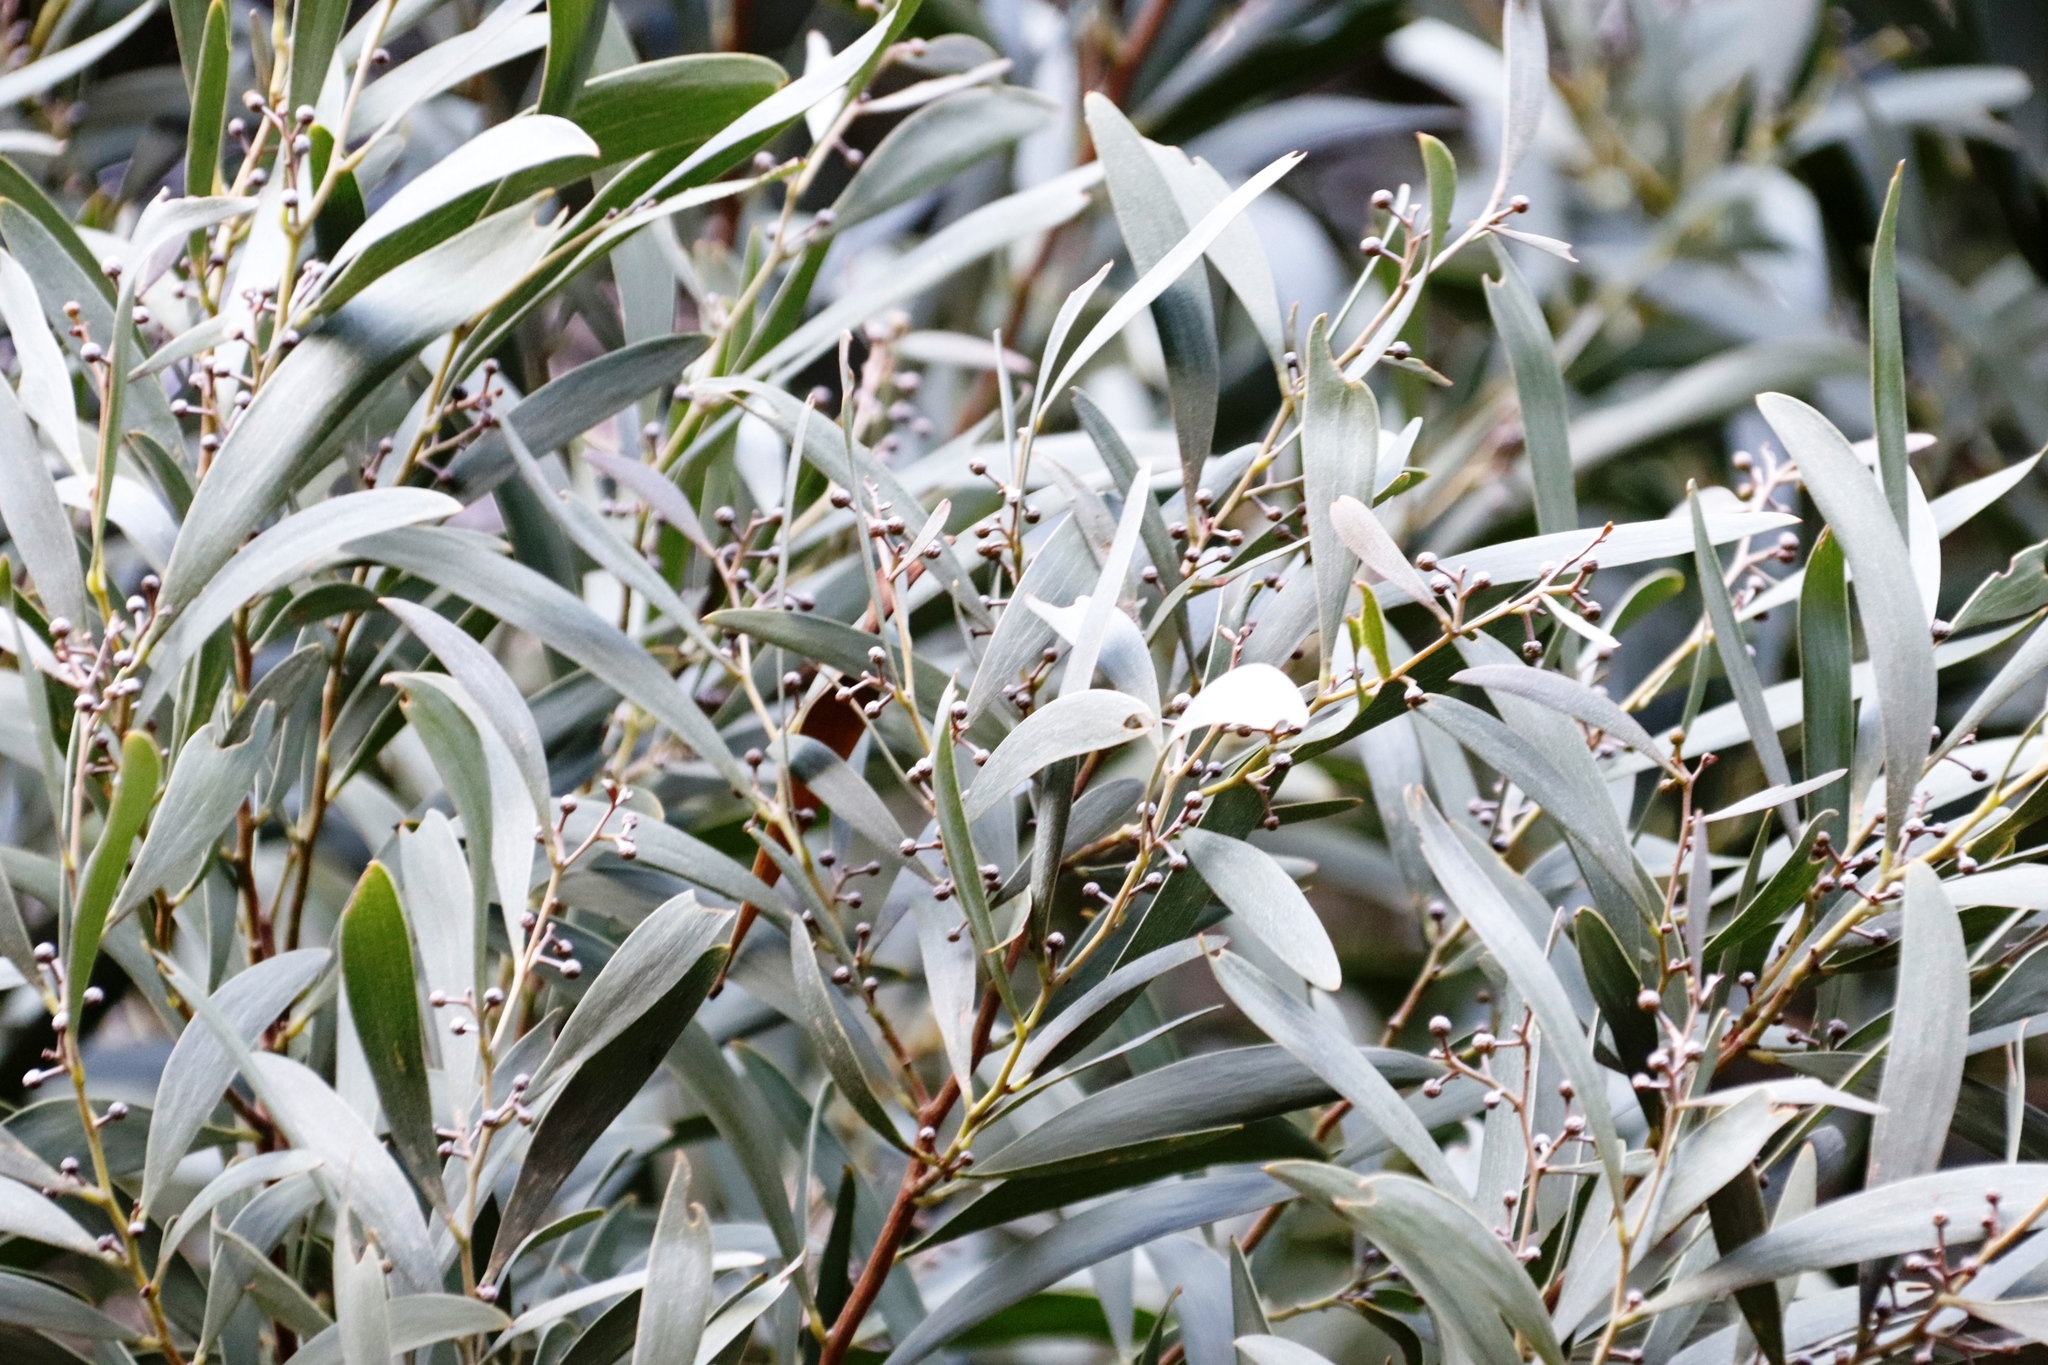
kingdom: Plantae
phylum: Tracheophyta
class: Magnoliopsida
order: Fabales
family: Fabaceae
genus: Acacia
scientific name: Acacia melanoxylon
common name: Blackwood
